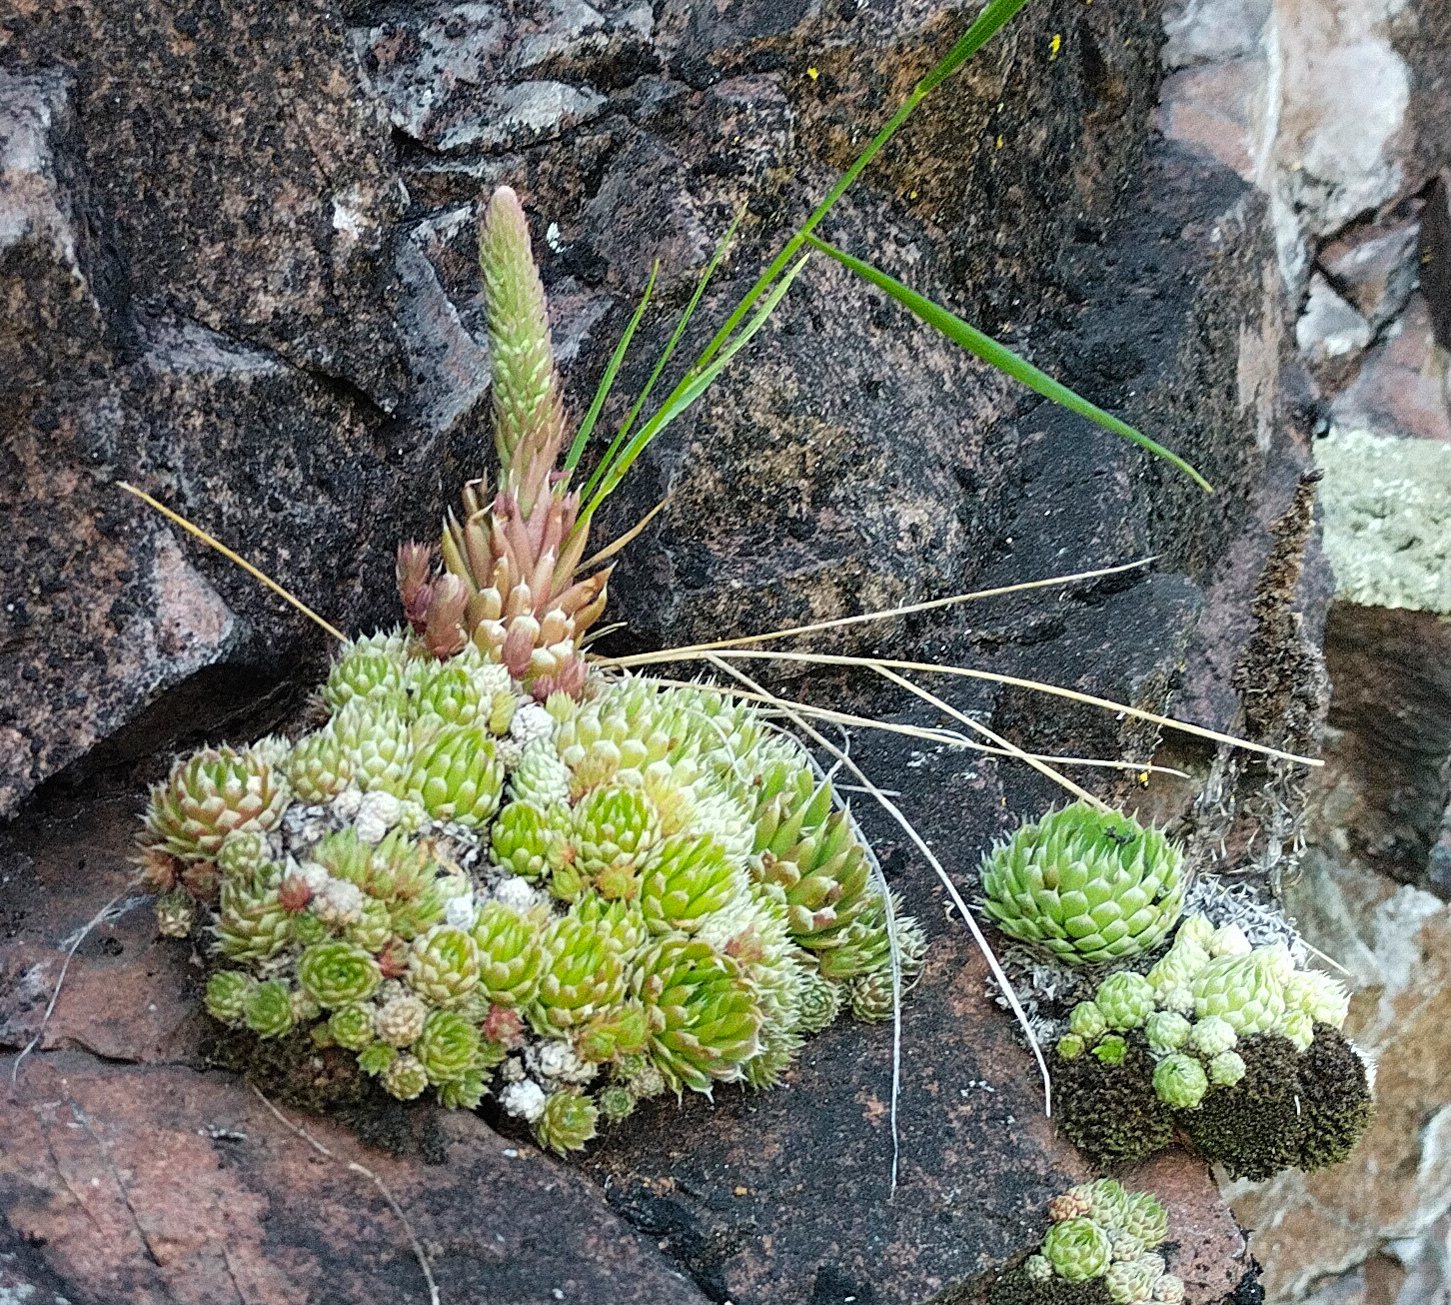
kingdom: Plantae
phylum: Tracheophyta
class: Magnoliopsida
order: Saxifragales
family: Crassulaceae
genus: Orostachys
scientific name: Orostachys spinosa
